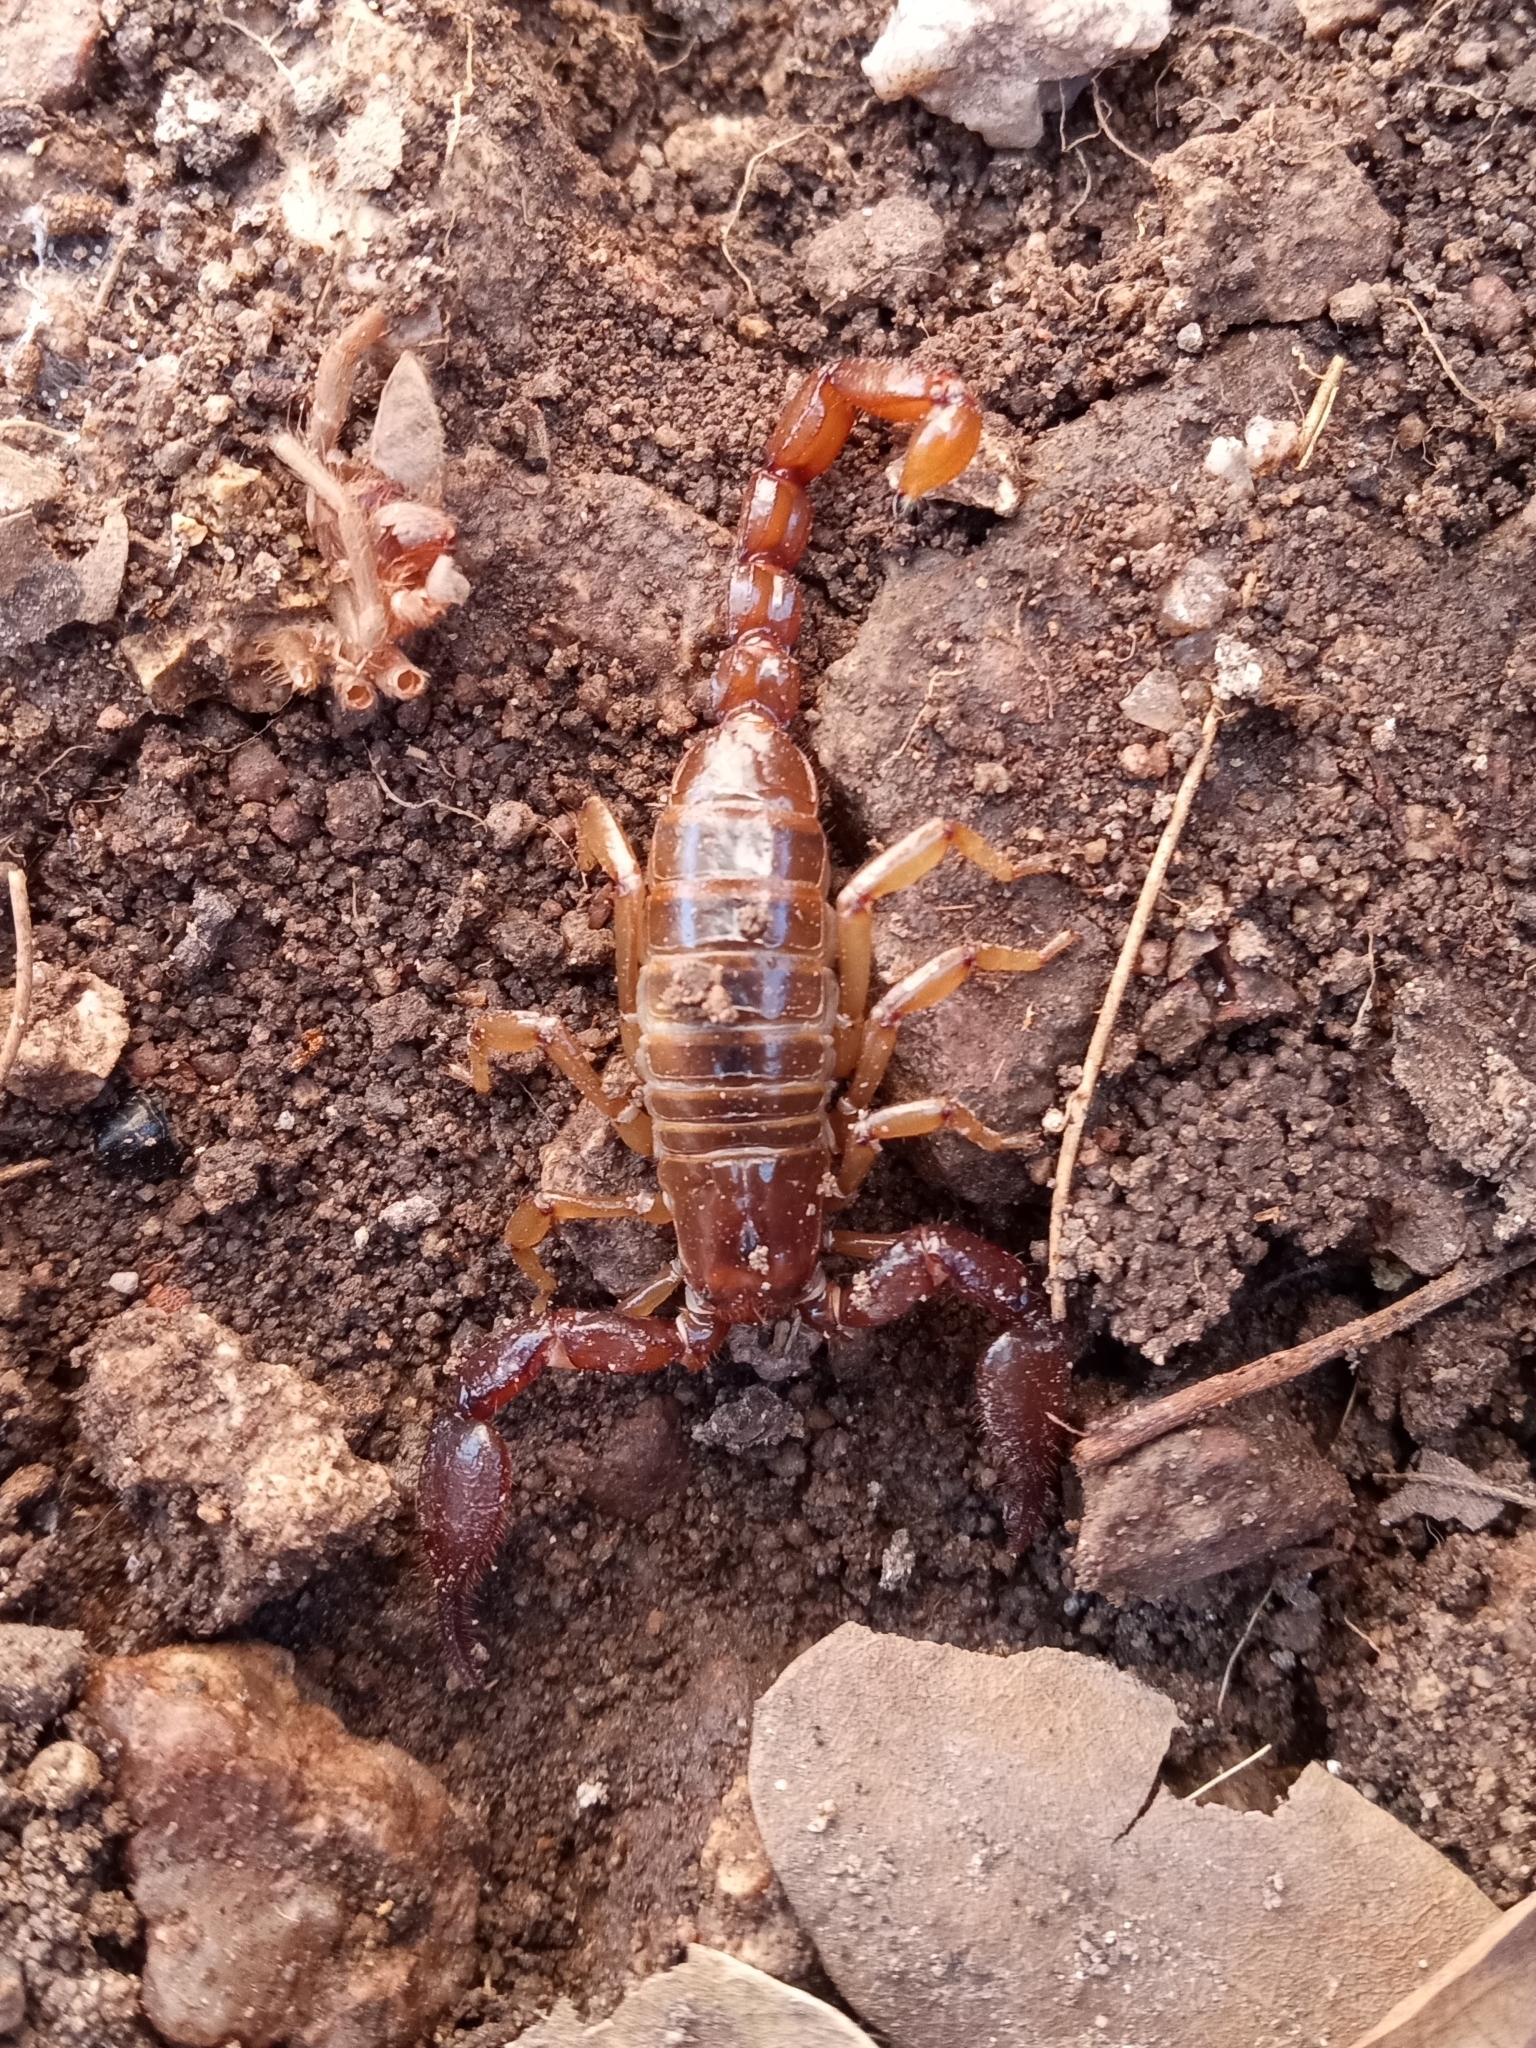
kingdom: Animalia
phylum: Arthropoda
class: Arachnida
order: Scorpiones
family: Diplocentridae
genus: Diplocentrus
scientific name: Diplocentrus spitzeri
